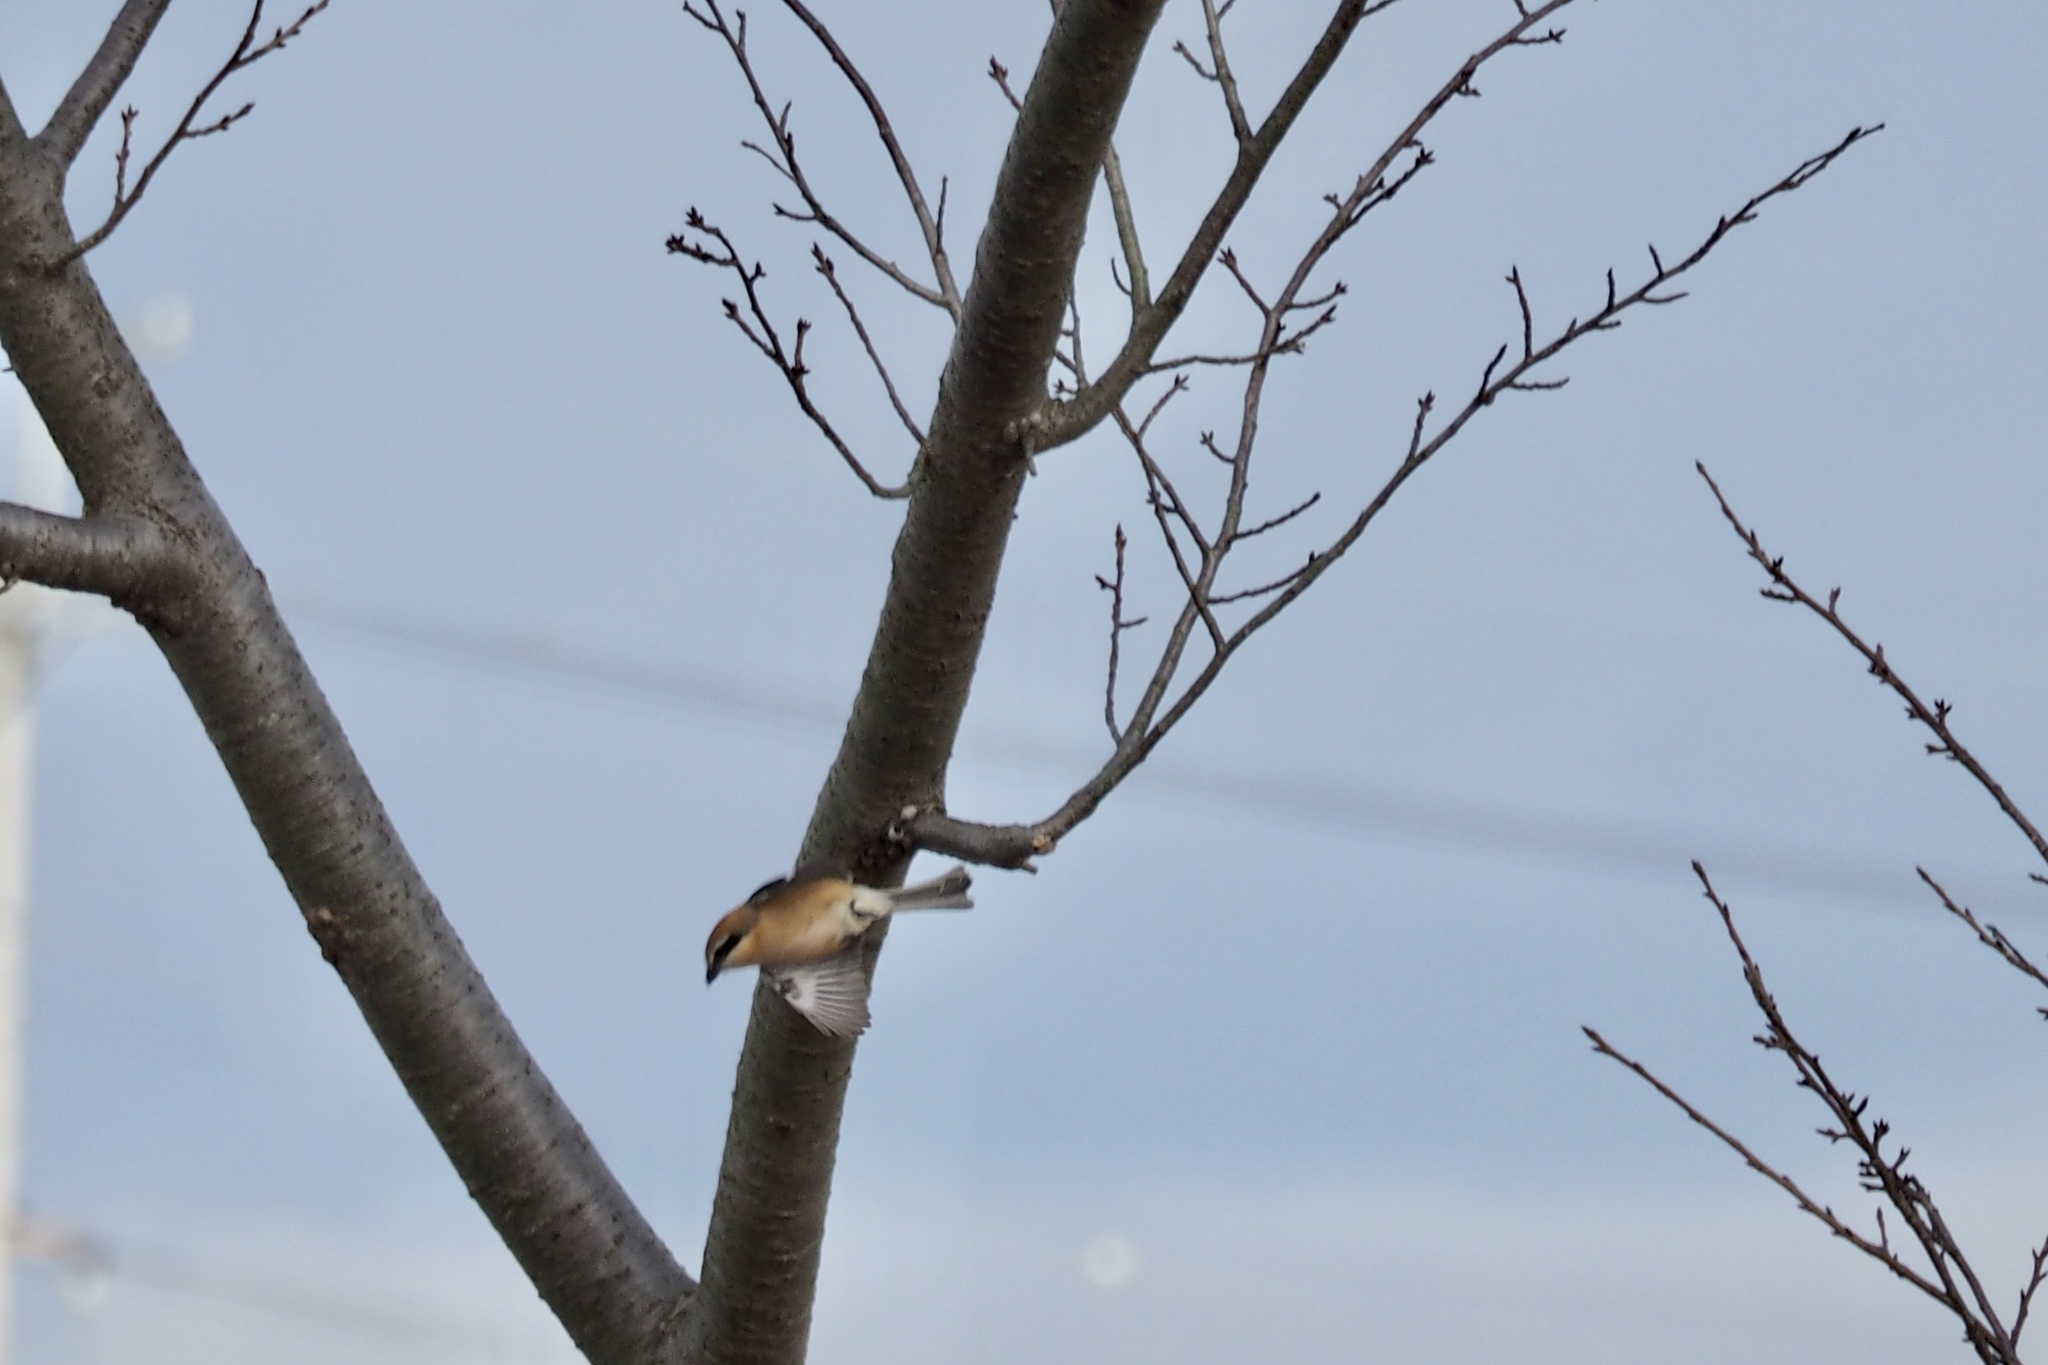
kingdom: Animalia
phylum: Chordata
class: Aves
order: Passeriformes
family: Laniidae
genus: Lanius
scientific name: Lanius bucephalus
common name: Bull-headed shrike
